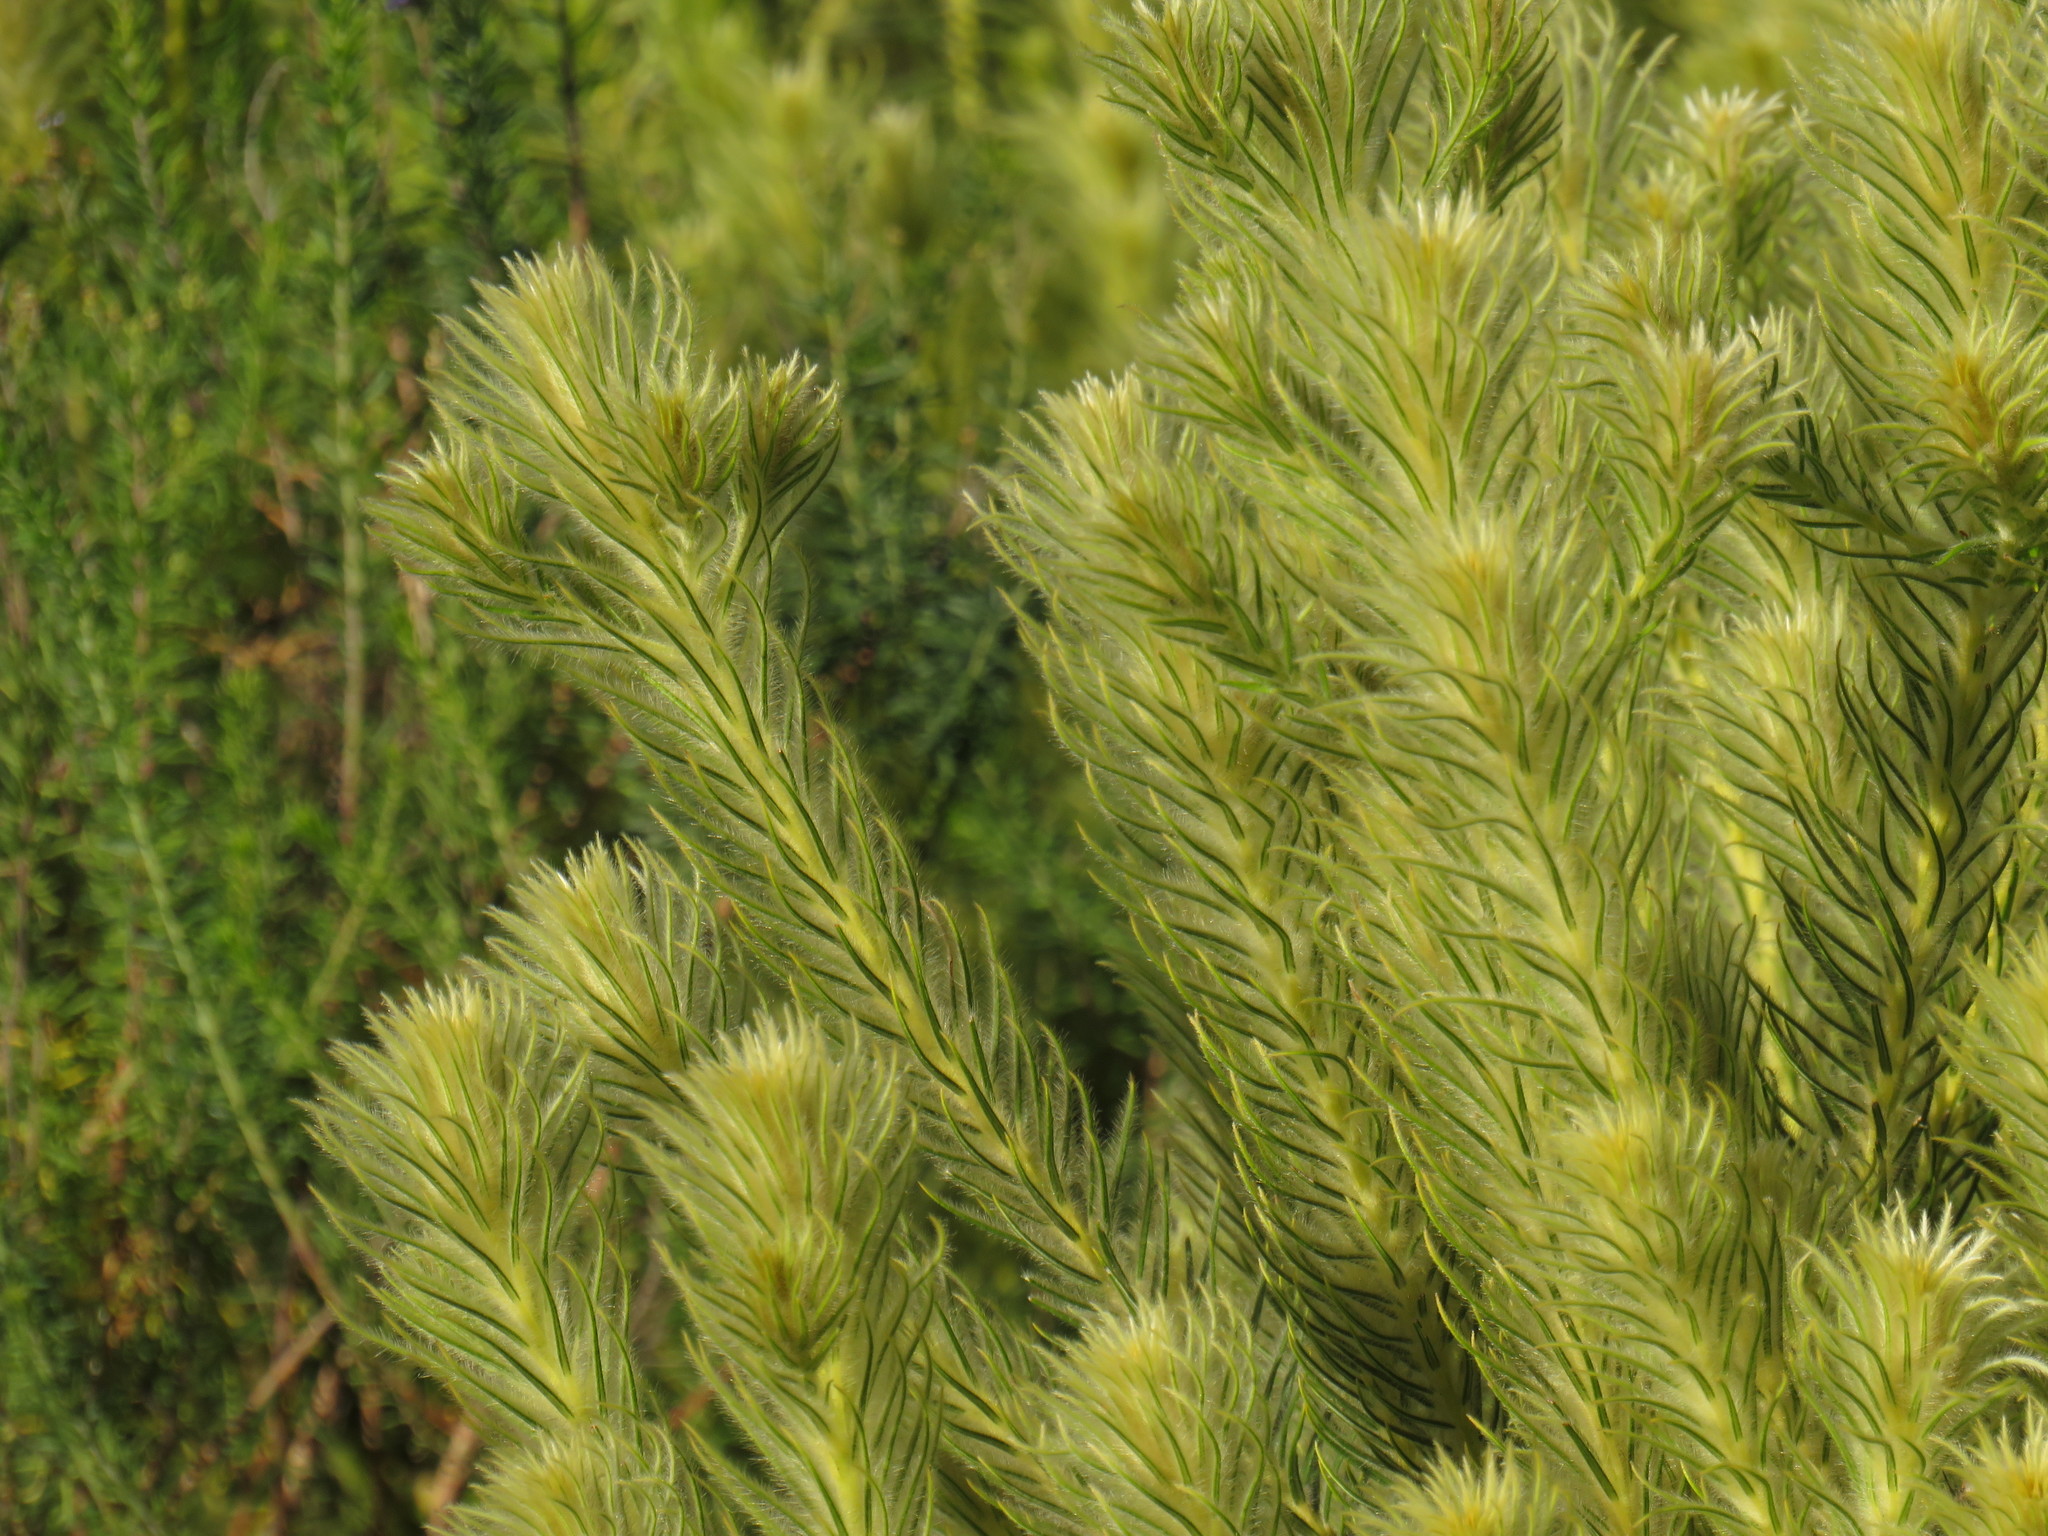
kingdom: Plantae
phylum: Tracheophyta
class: Magnoliopsida
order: Rosales
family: Rhamnaceae
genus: Phylica
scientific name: Phylica pubescens
